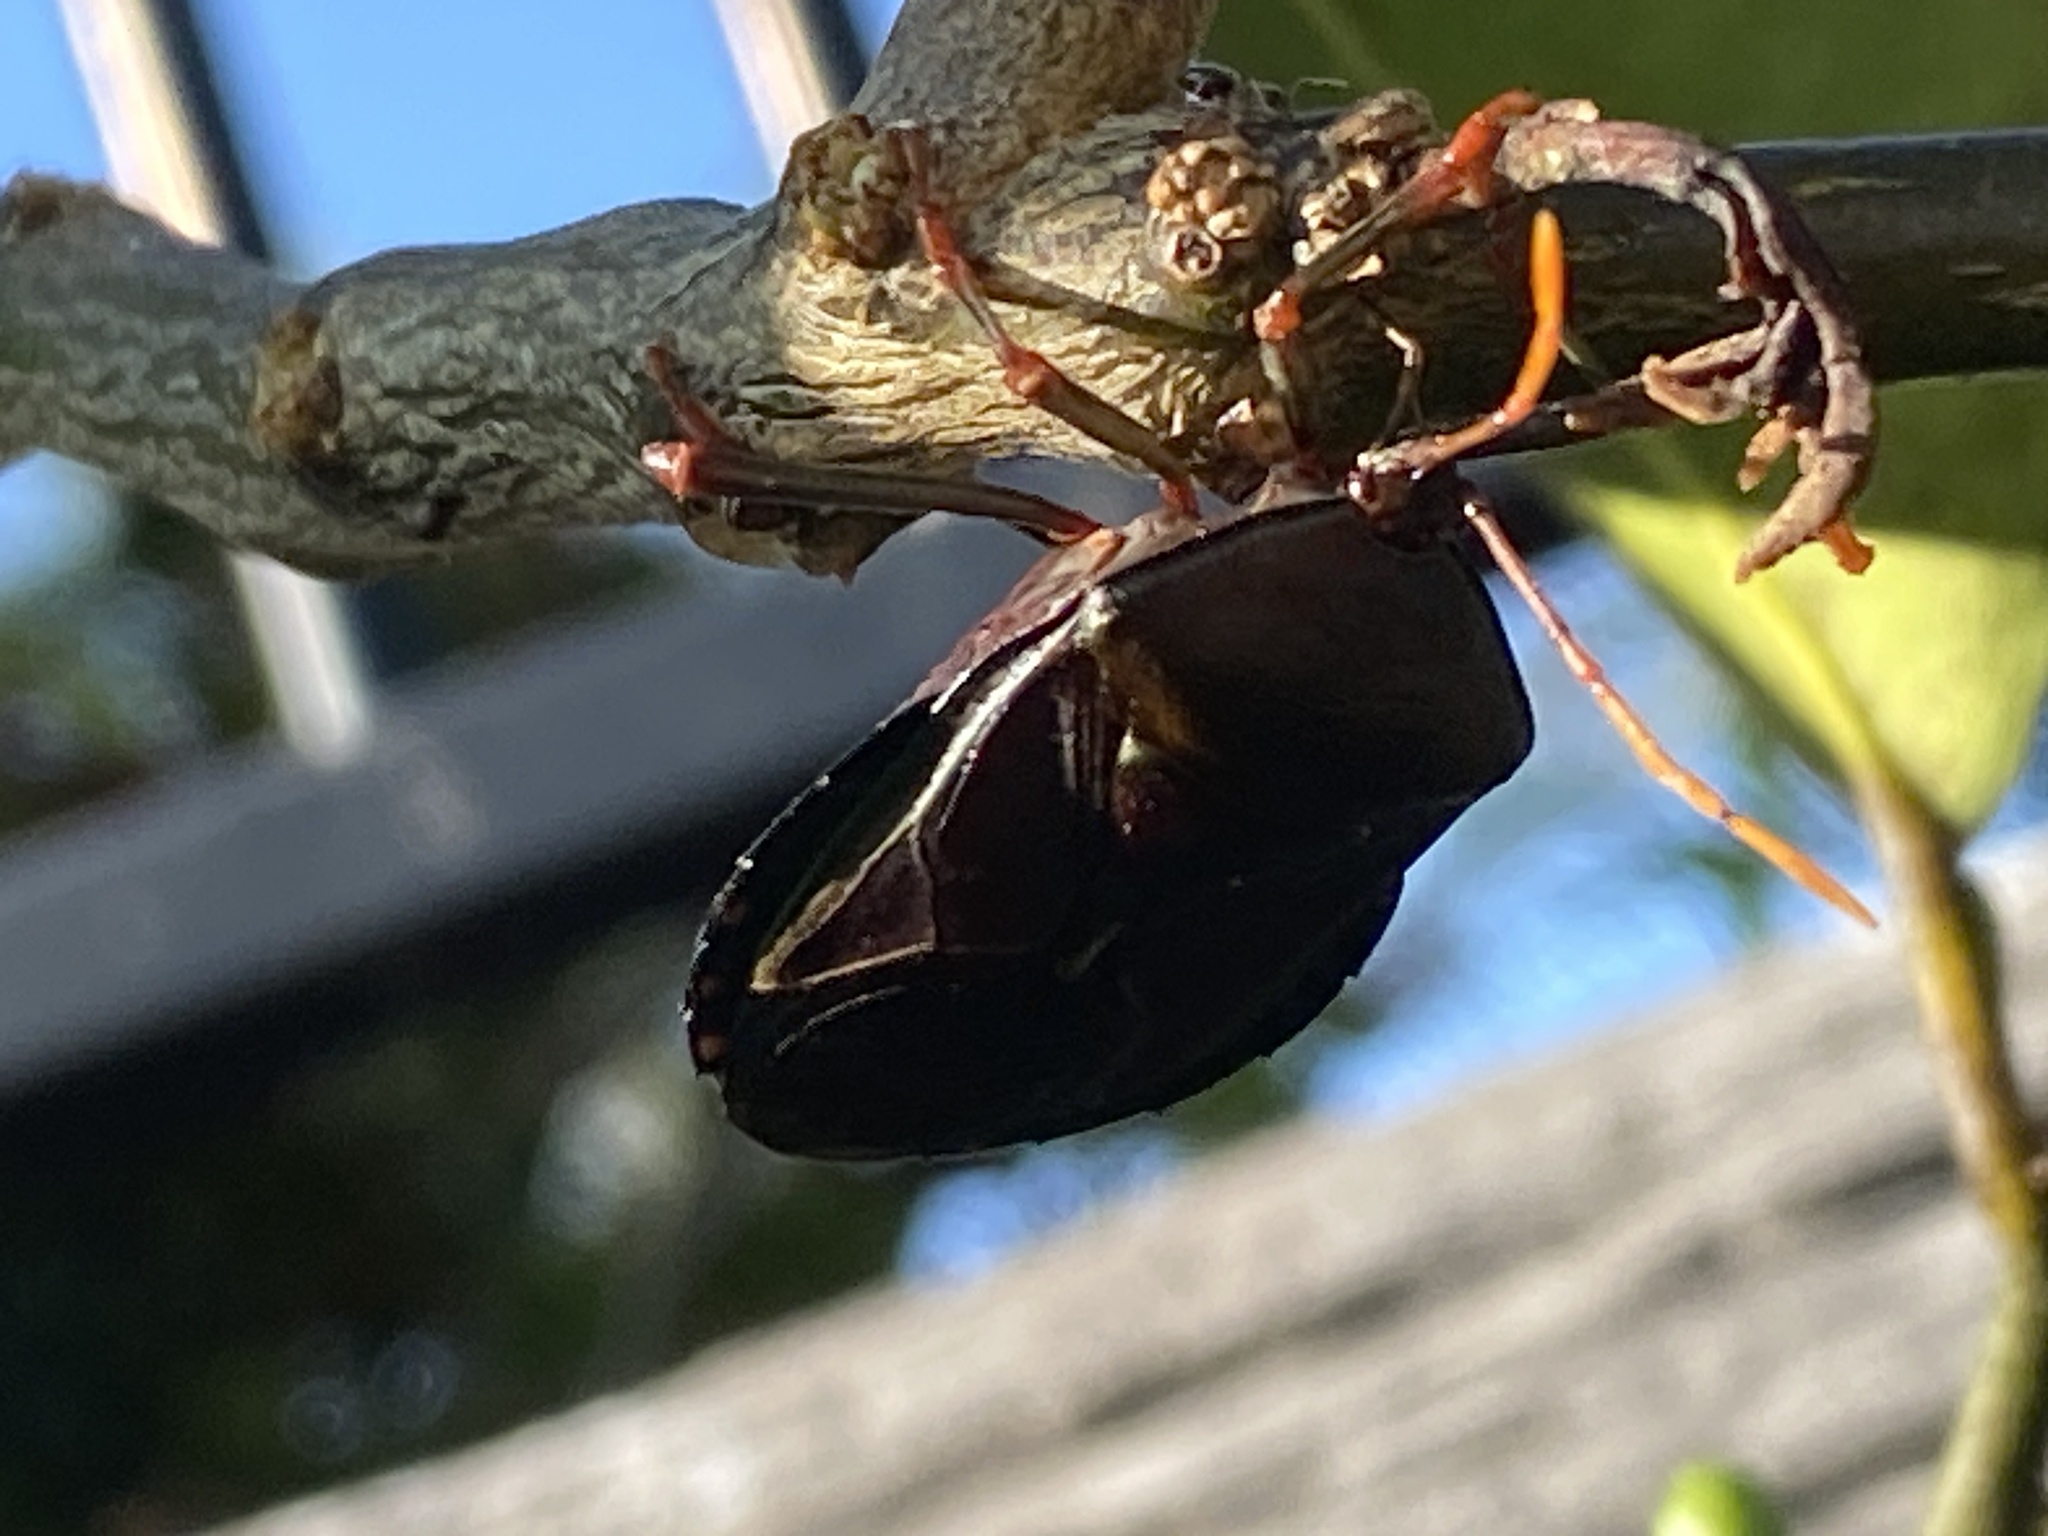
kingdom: Animalia
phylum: Arthropoda
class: Insecta
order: Hemiptera
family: Tessaratomidae
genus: Musgraveia
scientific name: Musgraveia sulciventris
